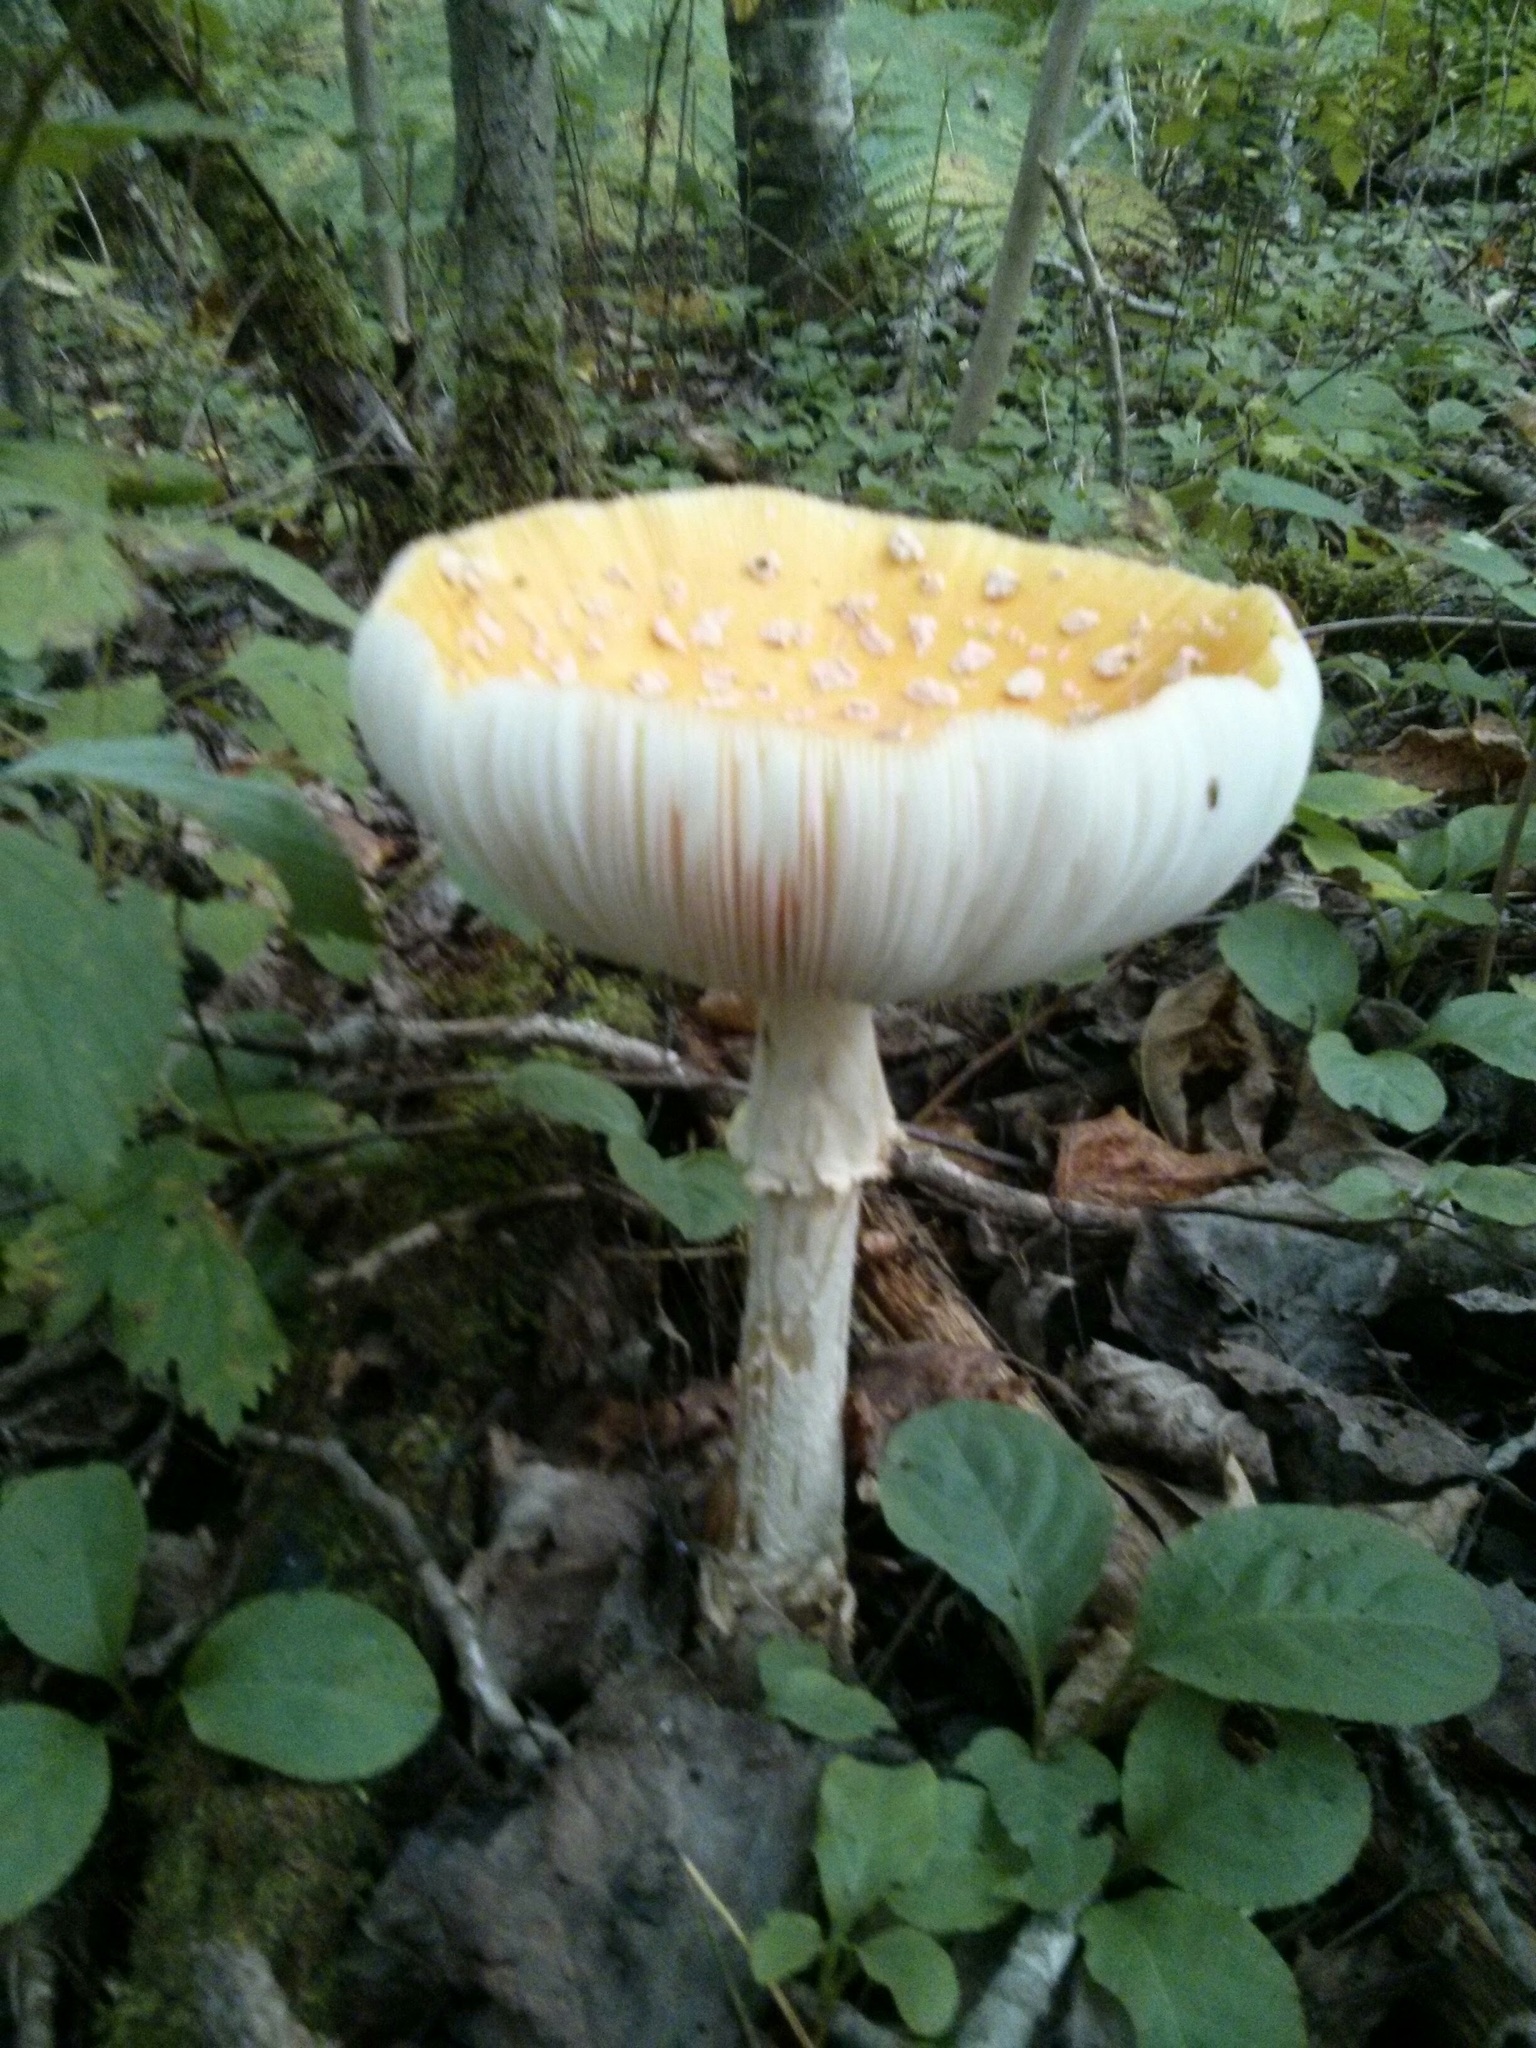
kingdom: Fungi
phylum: Basidiomycota
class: Agaricomycetes
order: Agaricales
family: Amanitaceae
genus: Amanita
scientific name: Amanita muscaria
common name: Fly agaric
